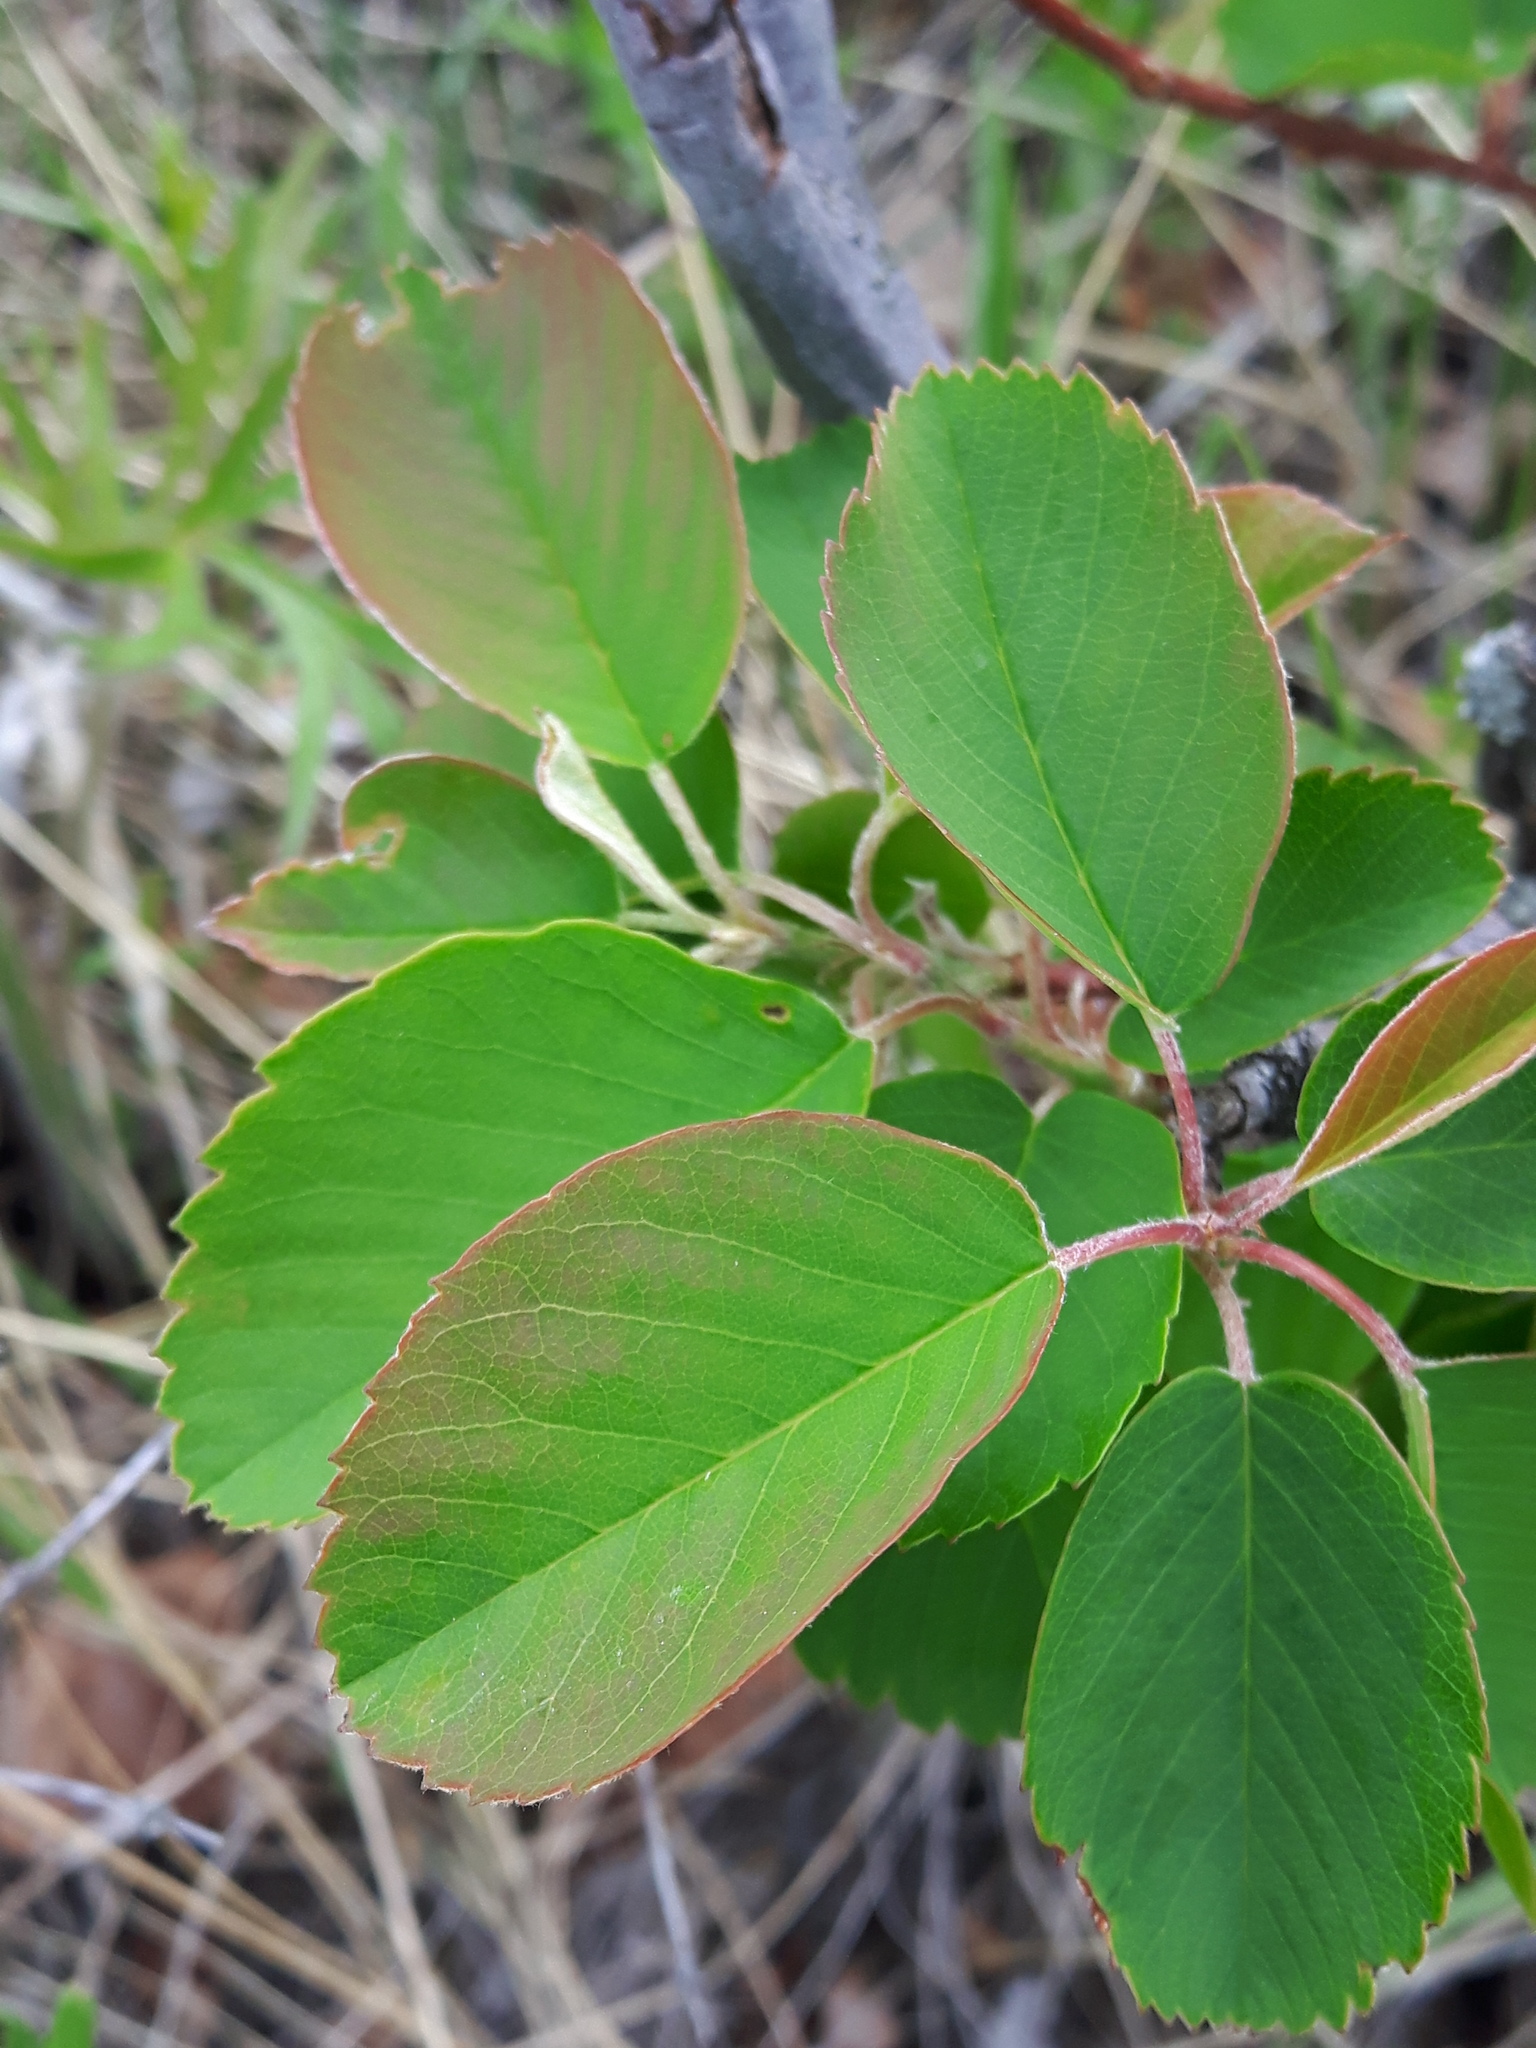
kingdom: Plantae
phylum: Tracheophyta
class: Magnoliopsida
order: Rosales
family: Rosaceae
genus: Amelanchier
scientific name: Amelanchier alnifolia
